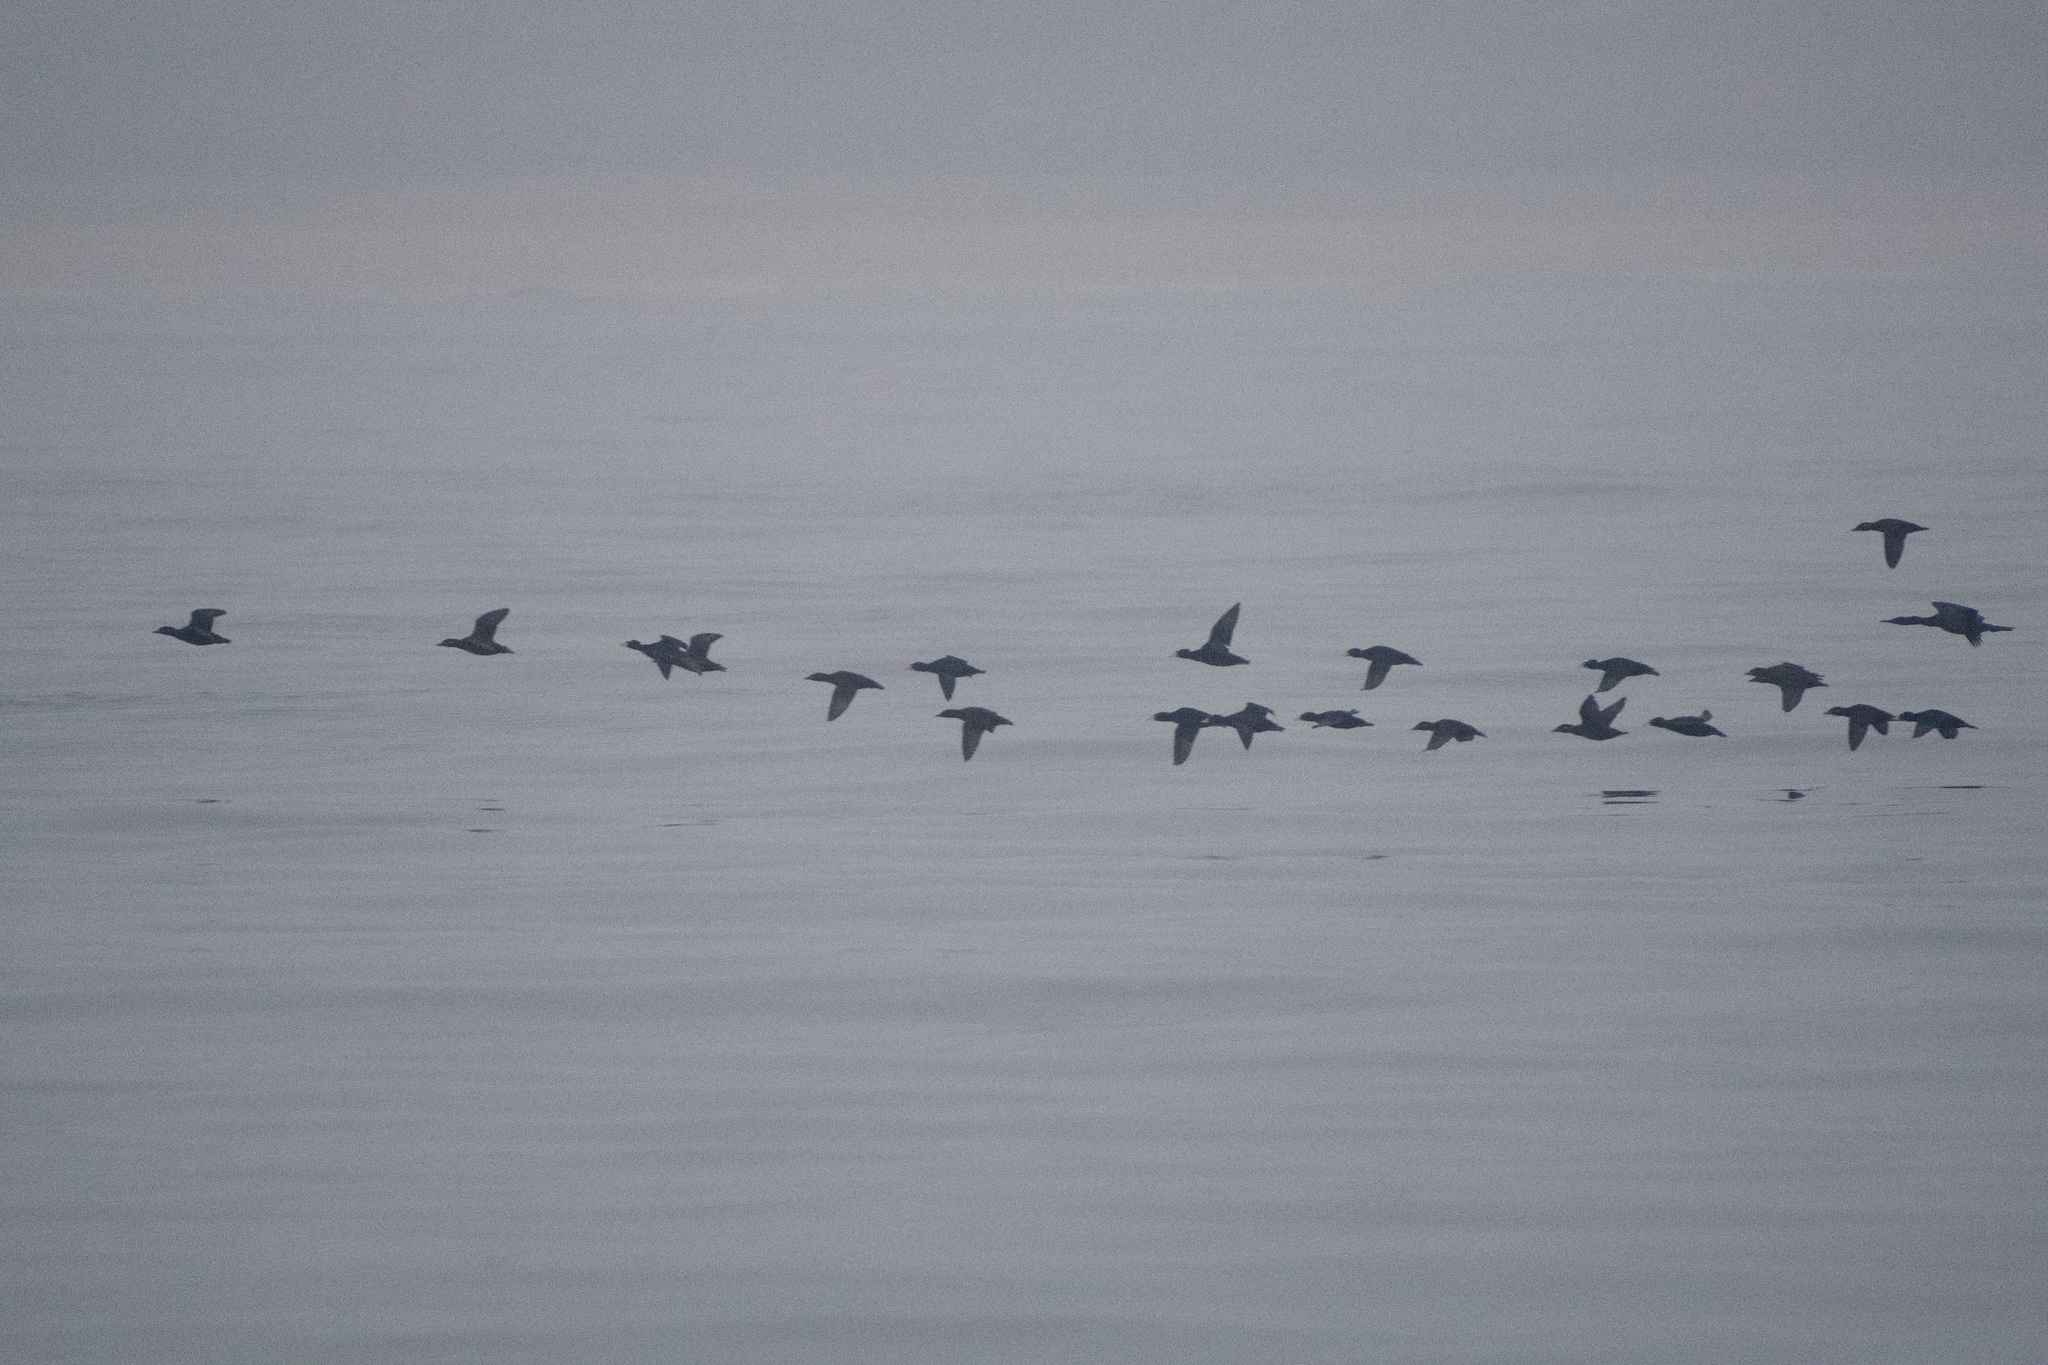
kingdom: Animalia
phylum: Chordata
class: Aves
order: Anseriformes
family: Anatidae
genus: Melanitta
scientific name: Melanitta perspicillata
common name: Surf scoter
